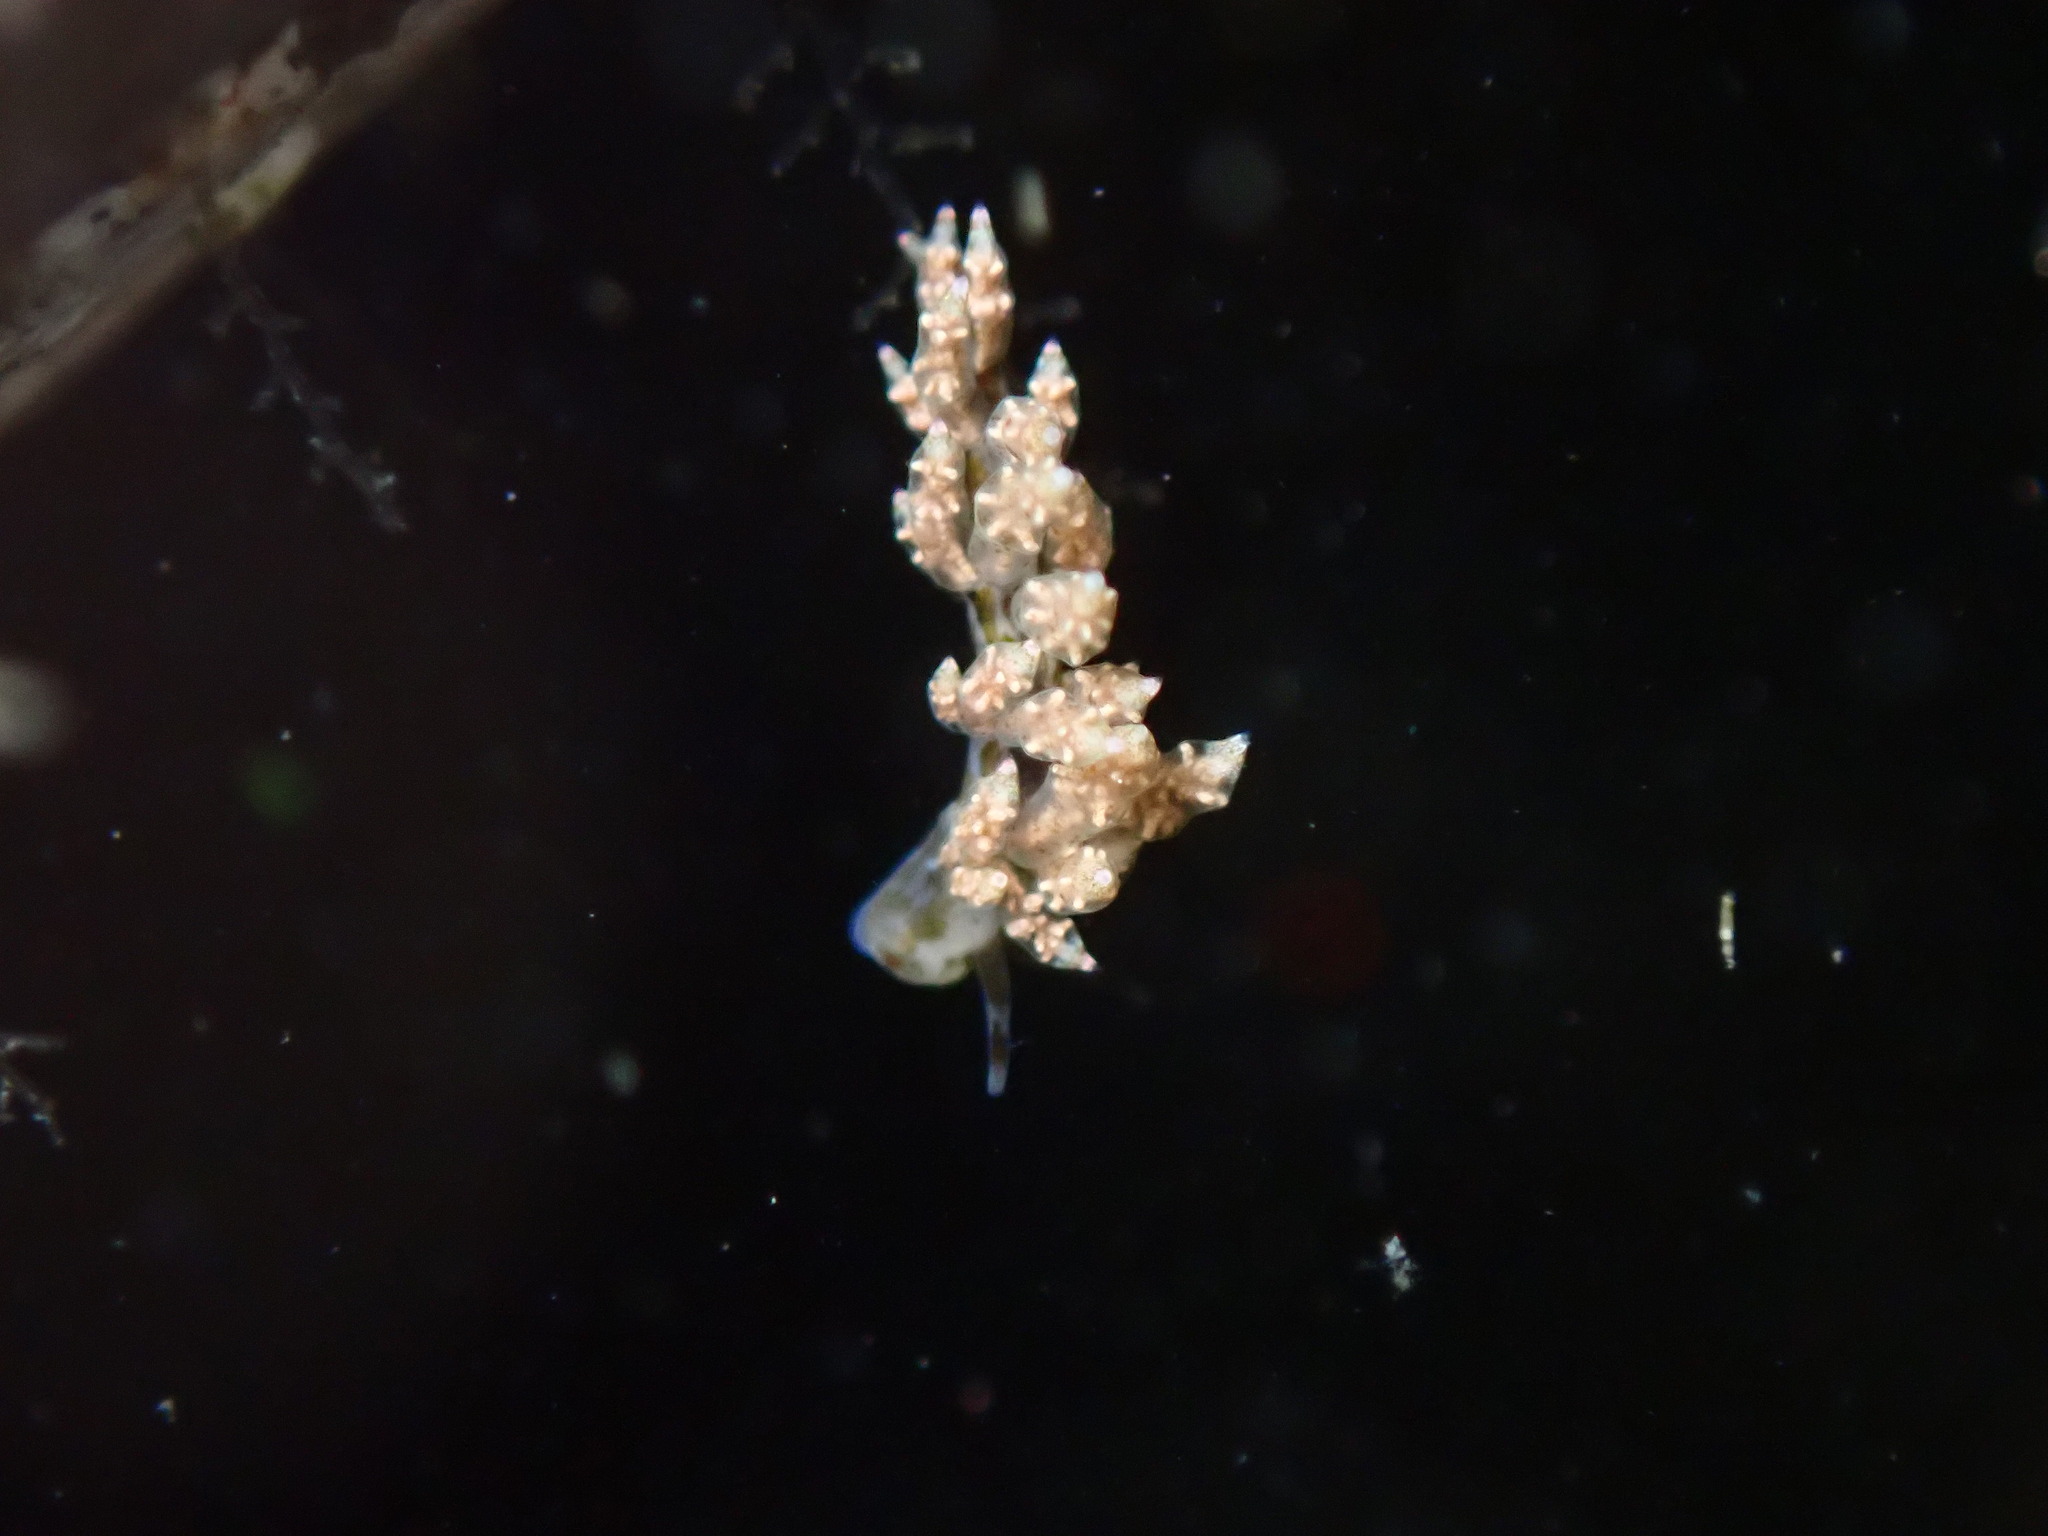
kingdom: Animalia
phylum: Mollusca
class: Gastropoda
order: Nudibranchia
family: Eubranchidae
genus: Eubranchus
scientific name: Eubranchus rustyus
